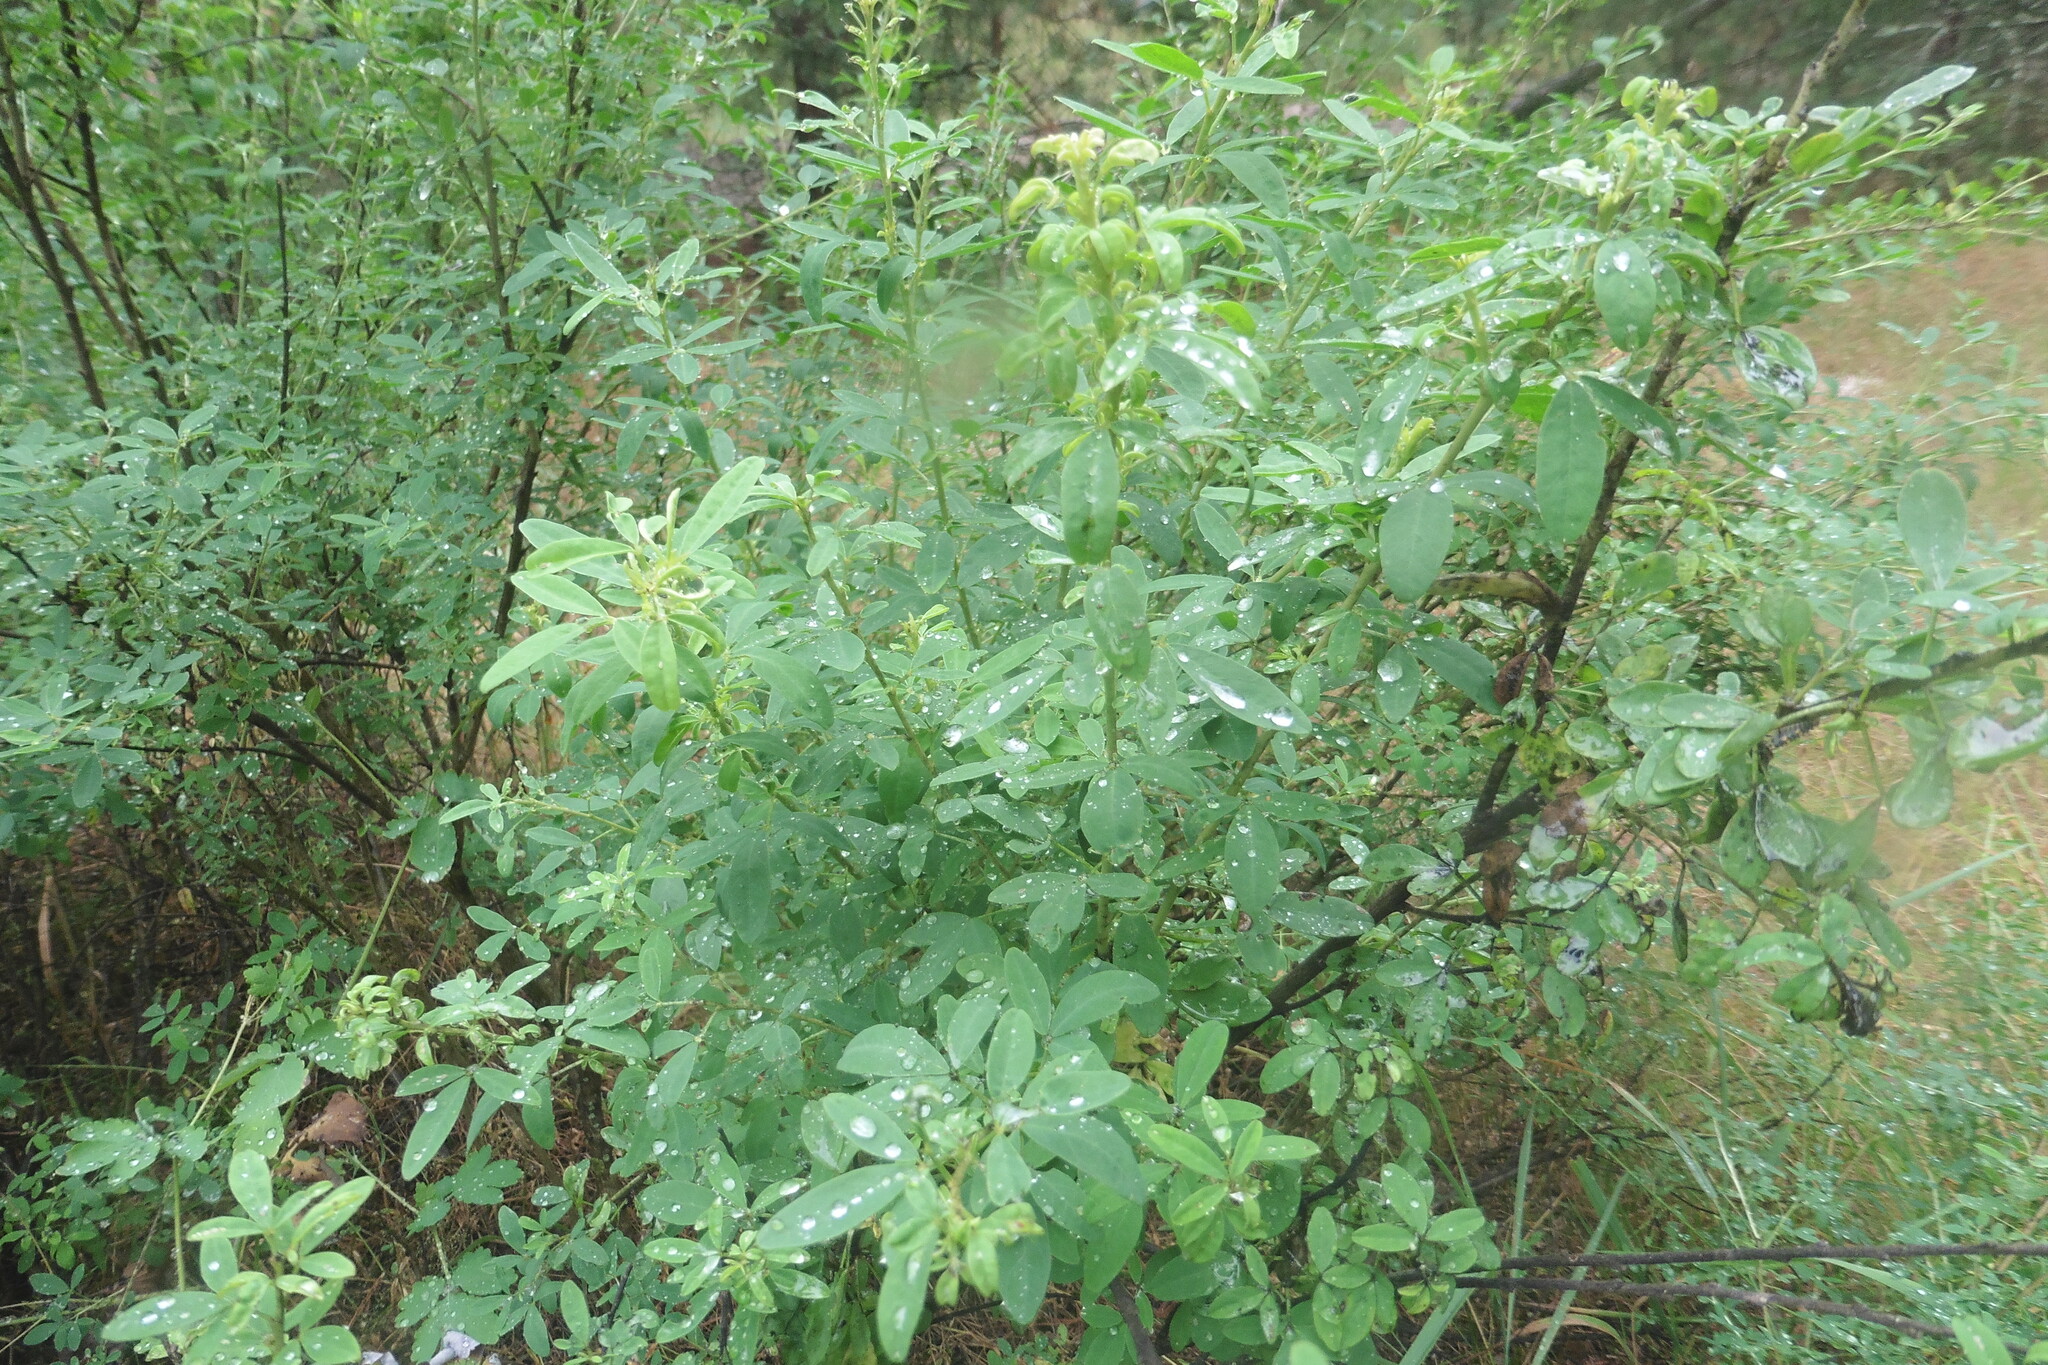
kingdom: Plantae
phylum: Tracheophyta
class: Magnoliopsida
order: Fabales
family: Fabaceae
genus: Chamaecytisus
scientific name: Chamaecytisus ruthenicus
